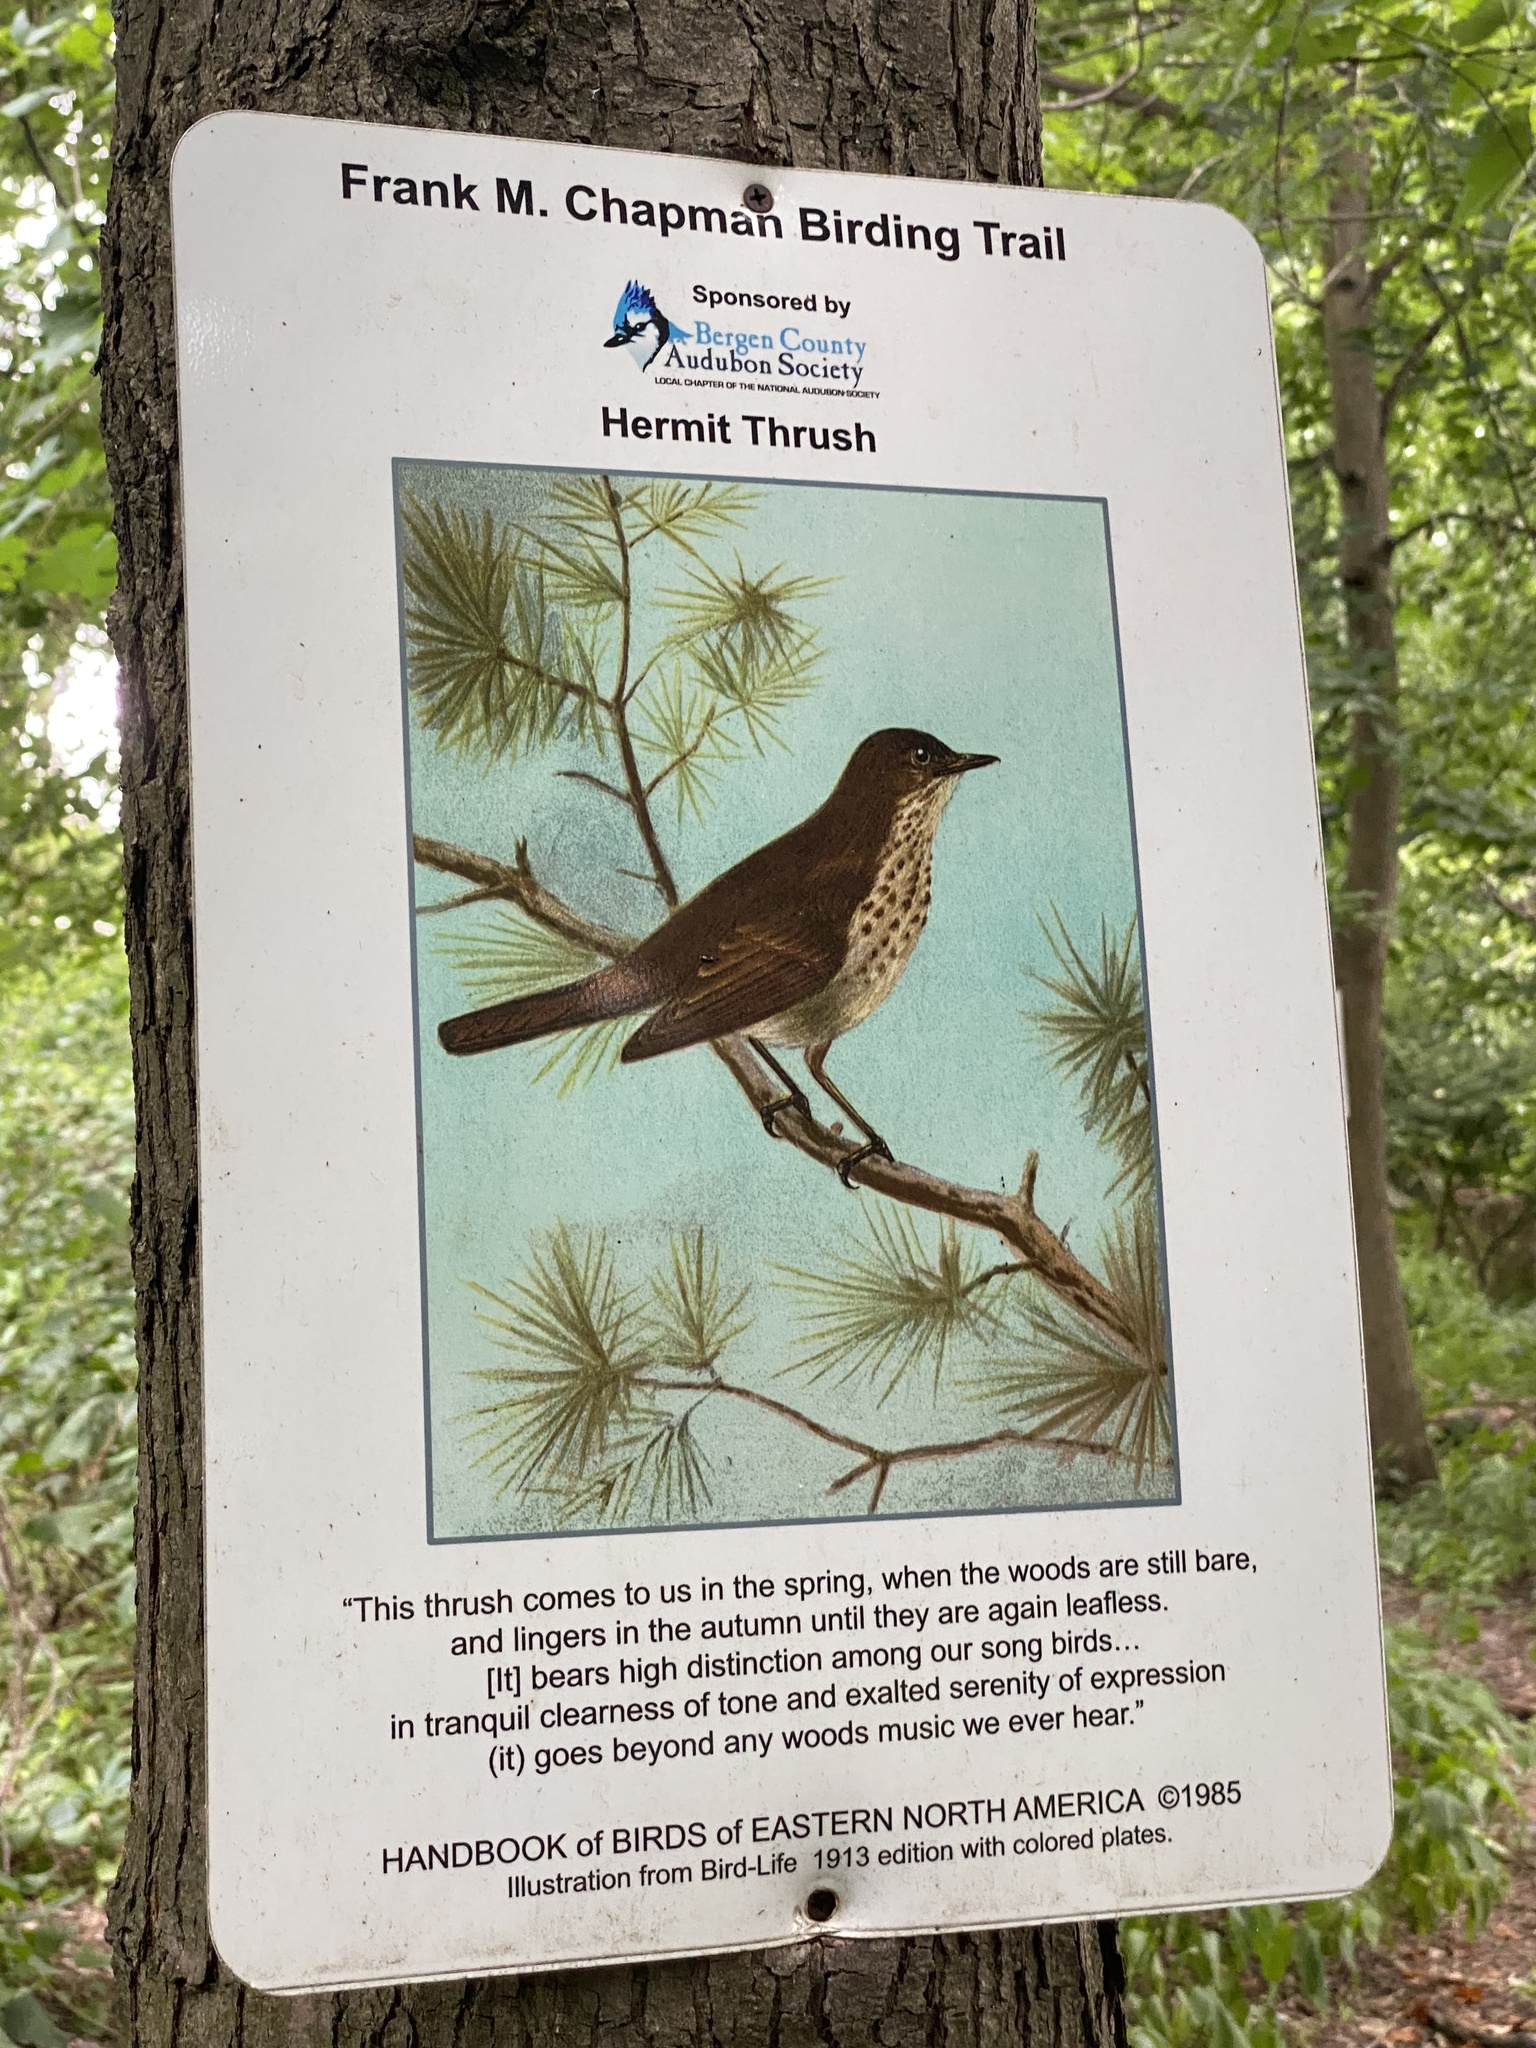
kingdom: Plantae
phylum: Tracheophyta
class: Magnoliopsida
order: Asterales
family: Asteraceae
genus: Ageratina
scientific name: Ageratina altissima
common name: White snakeroot
